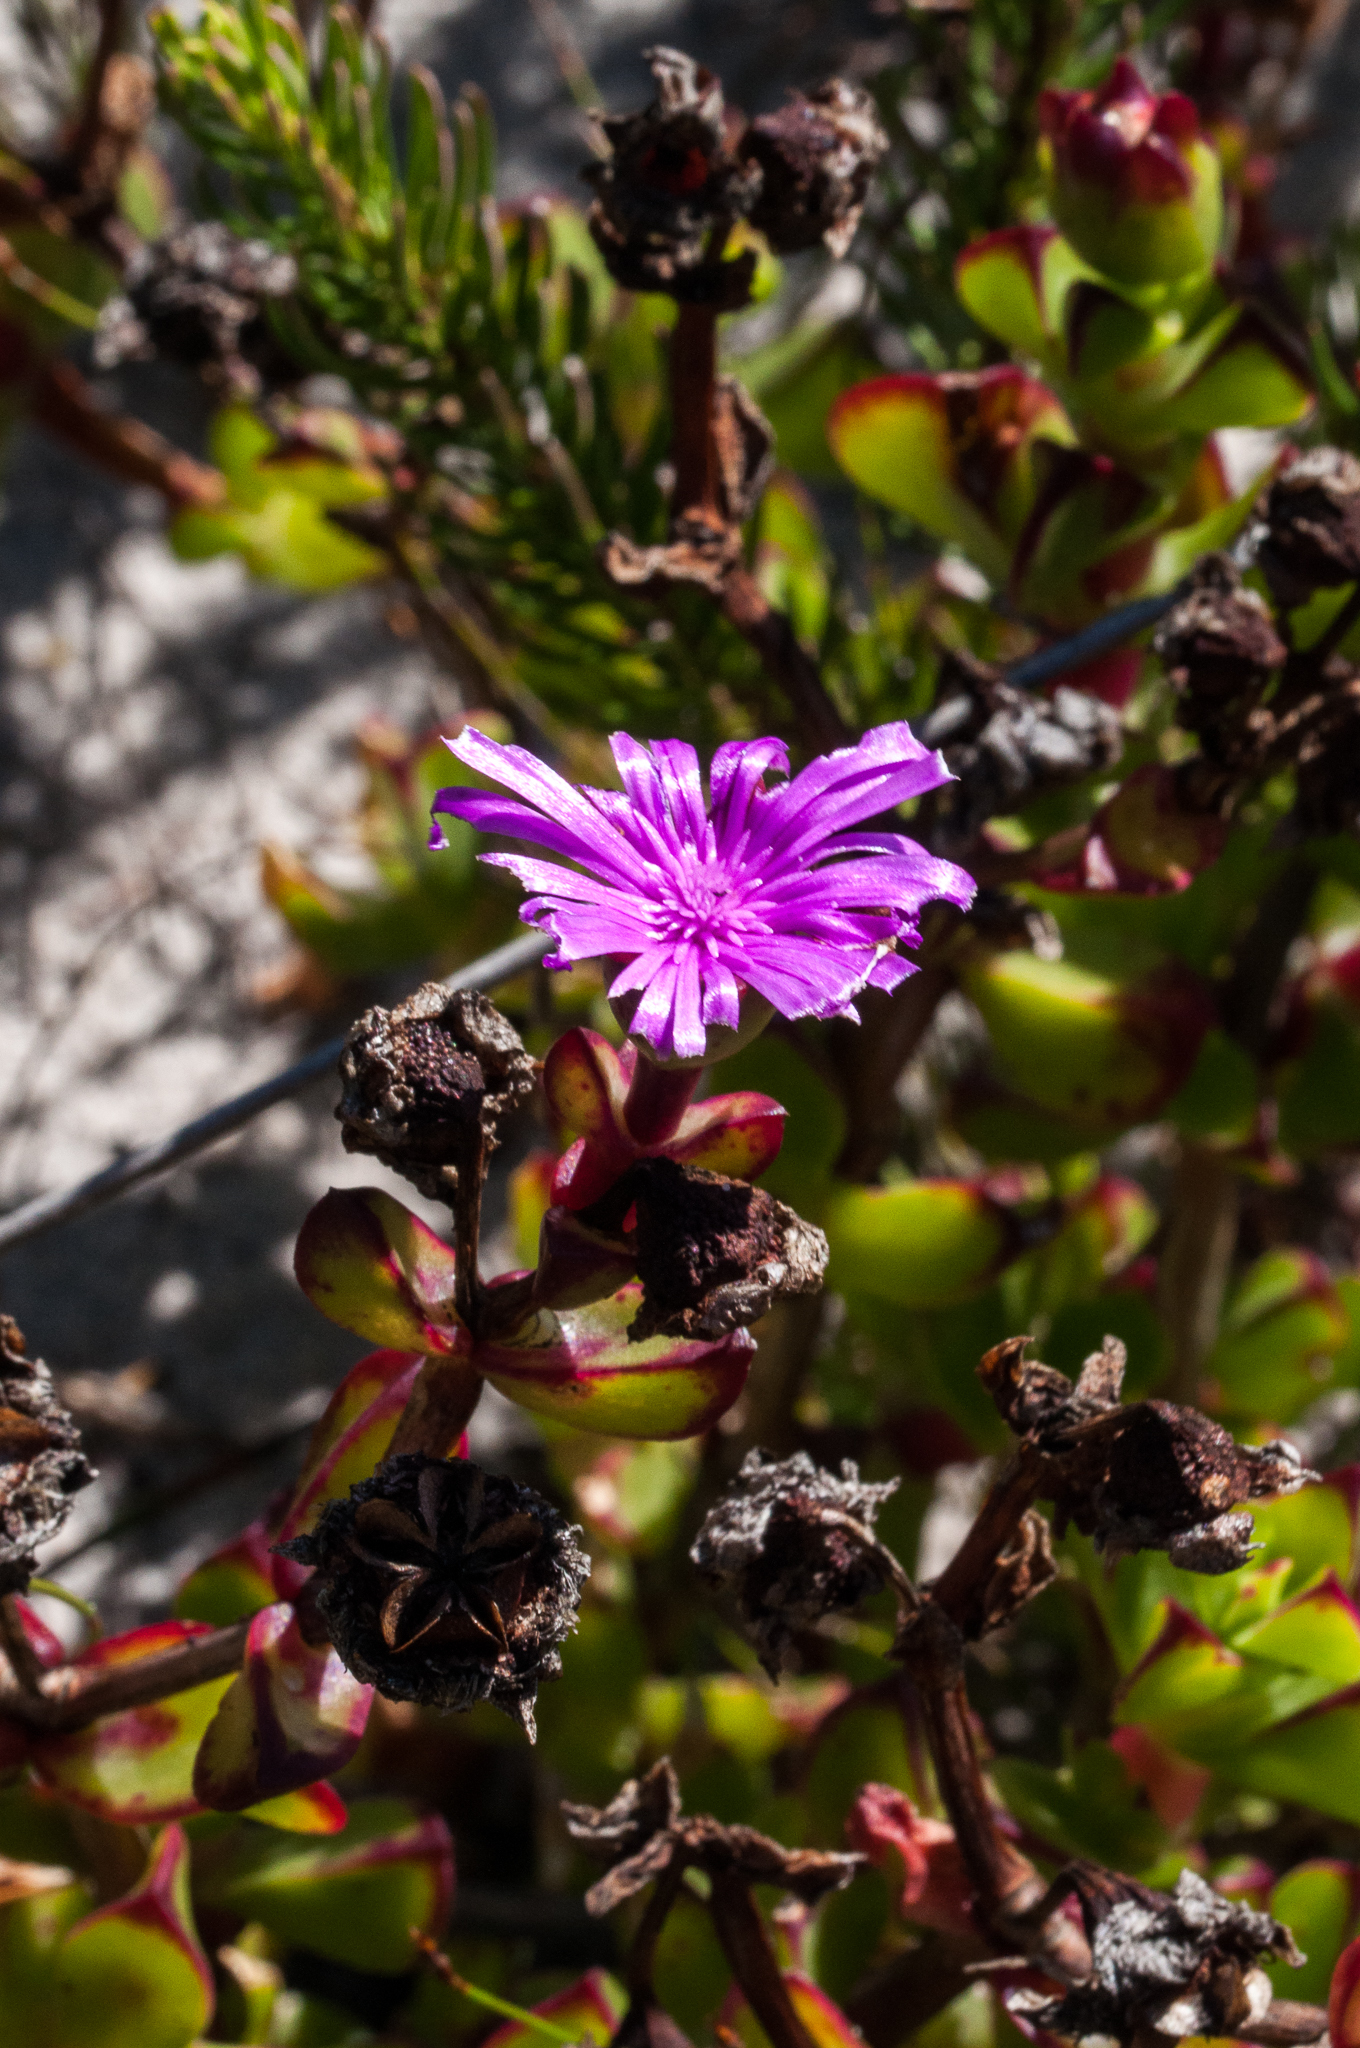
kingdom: Plantae
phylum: Tracheophyta
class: Magnoliopsida
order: Caryophyllales
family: Aizoaceae
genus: Erepsia
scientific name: Erepsia inclaudens
